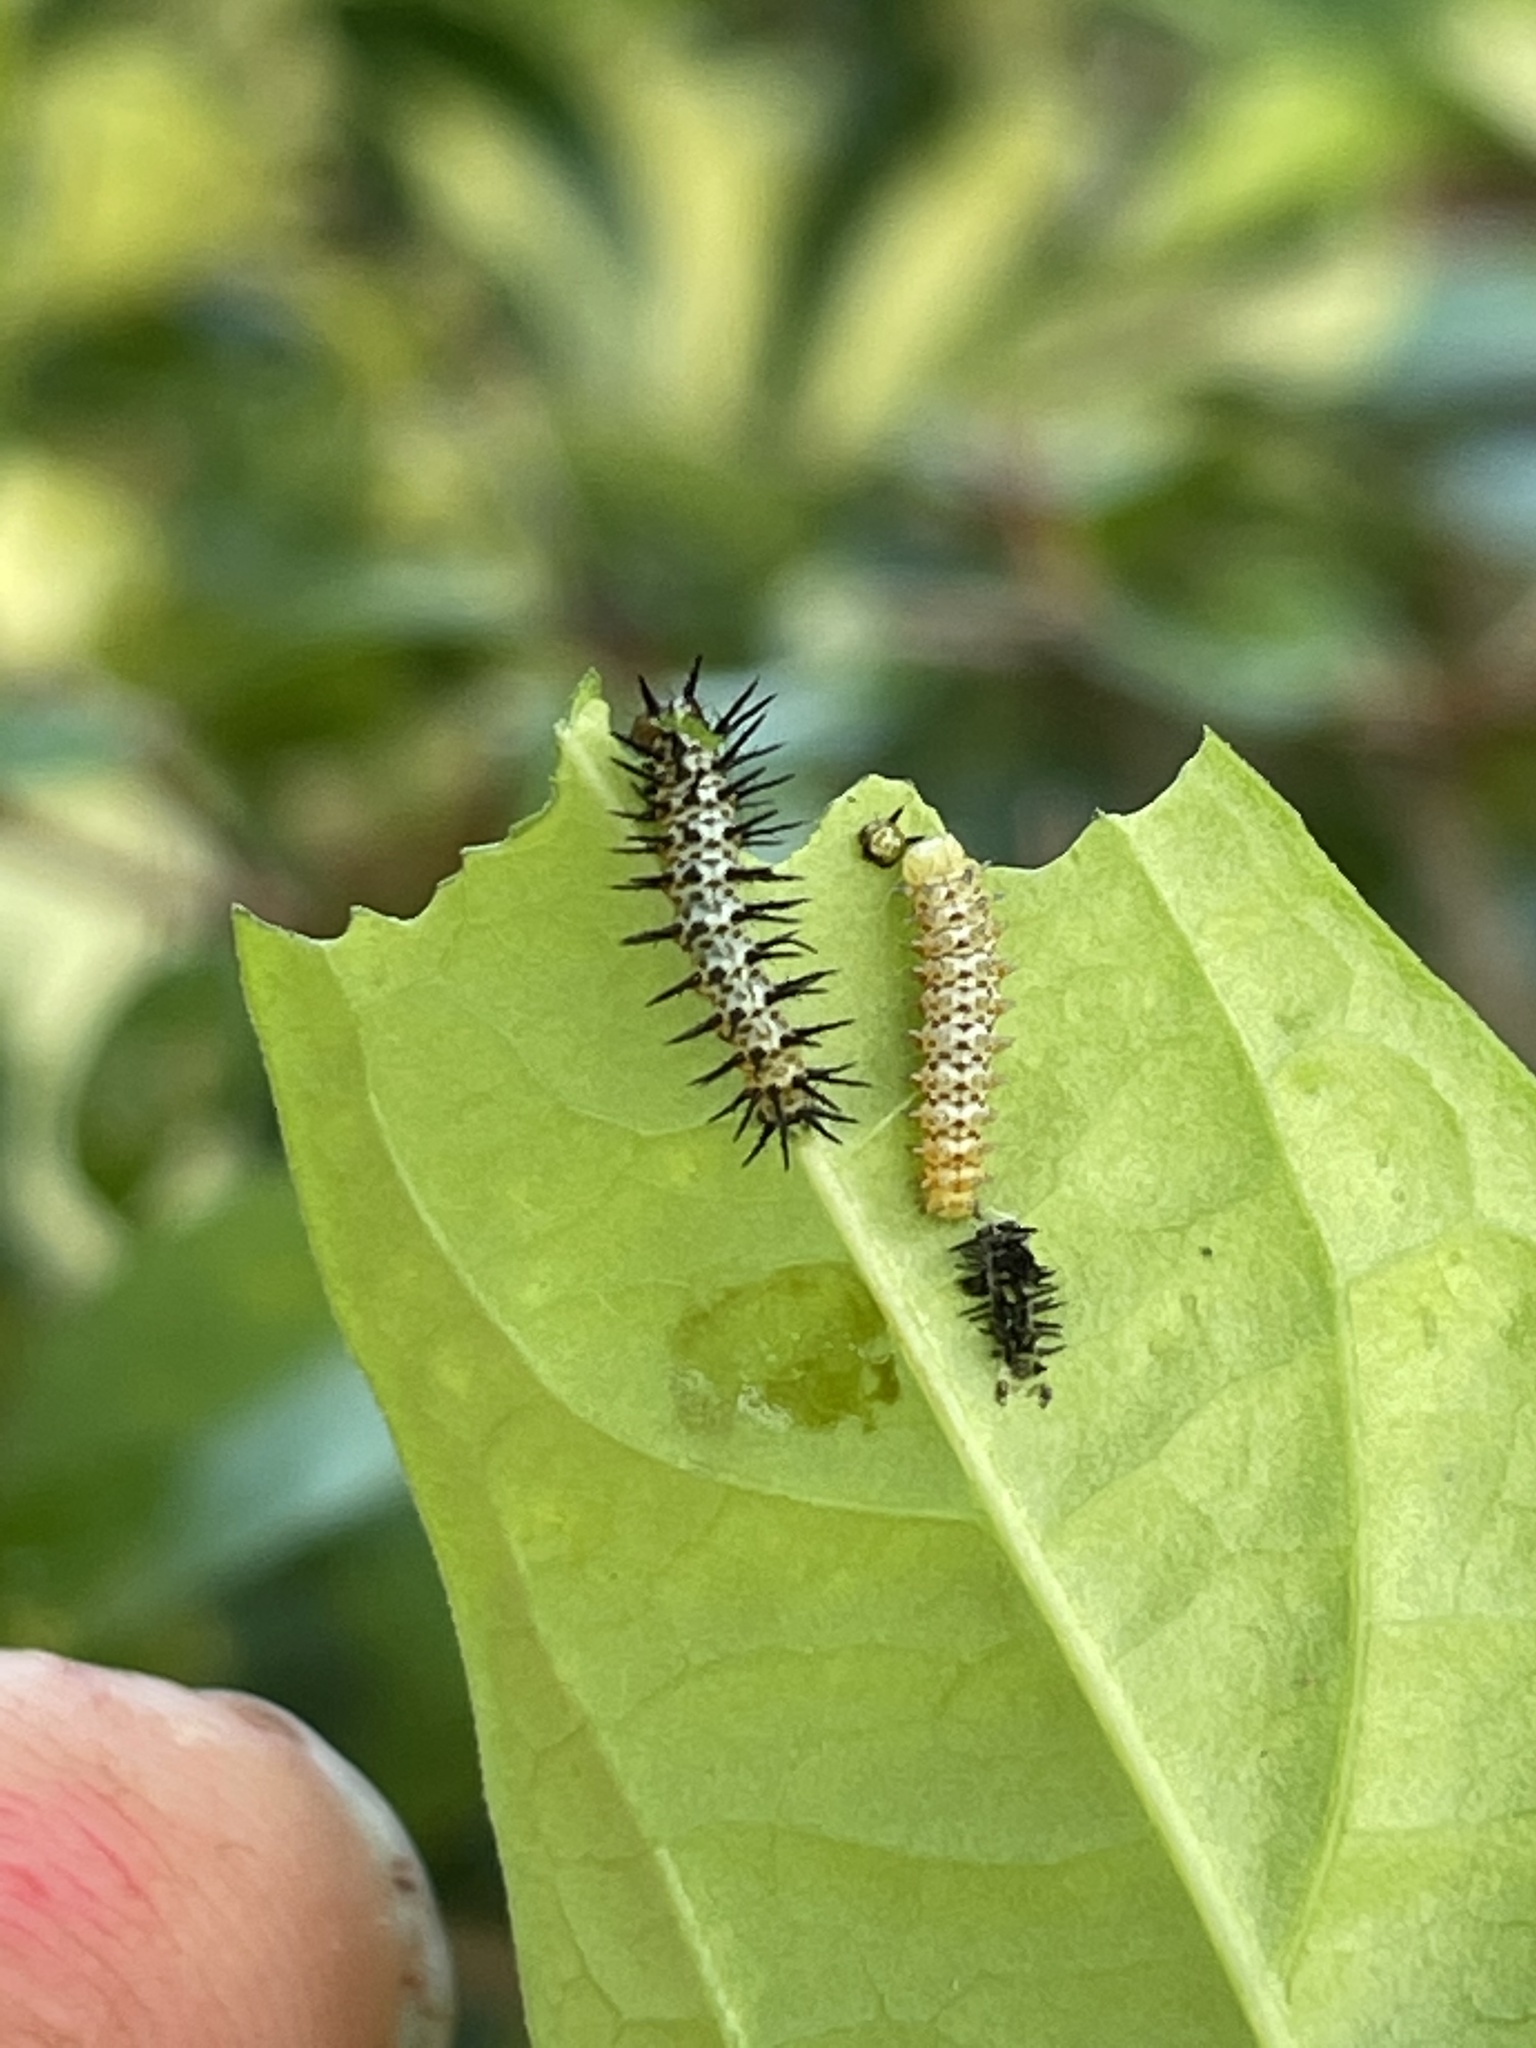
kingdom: Animalia
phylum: Arthropoda
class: Insecta
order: Lepidoptera
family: Nymphalidae
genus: Heliconius
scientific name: Heliconius charithonia
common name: Zebra long wing
